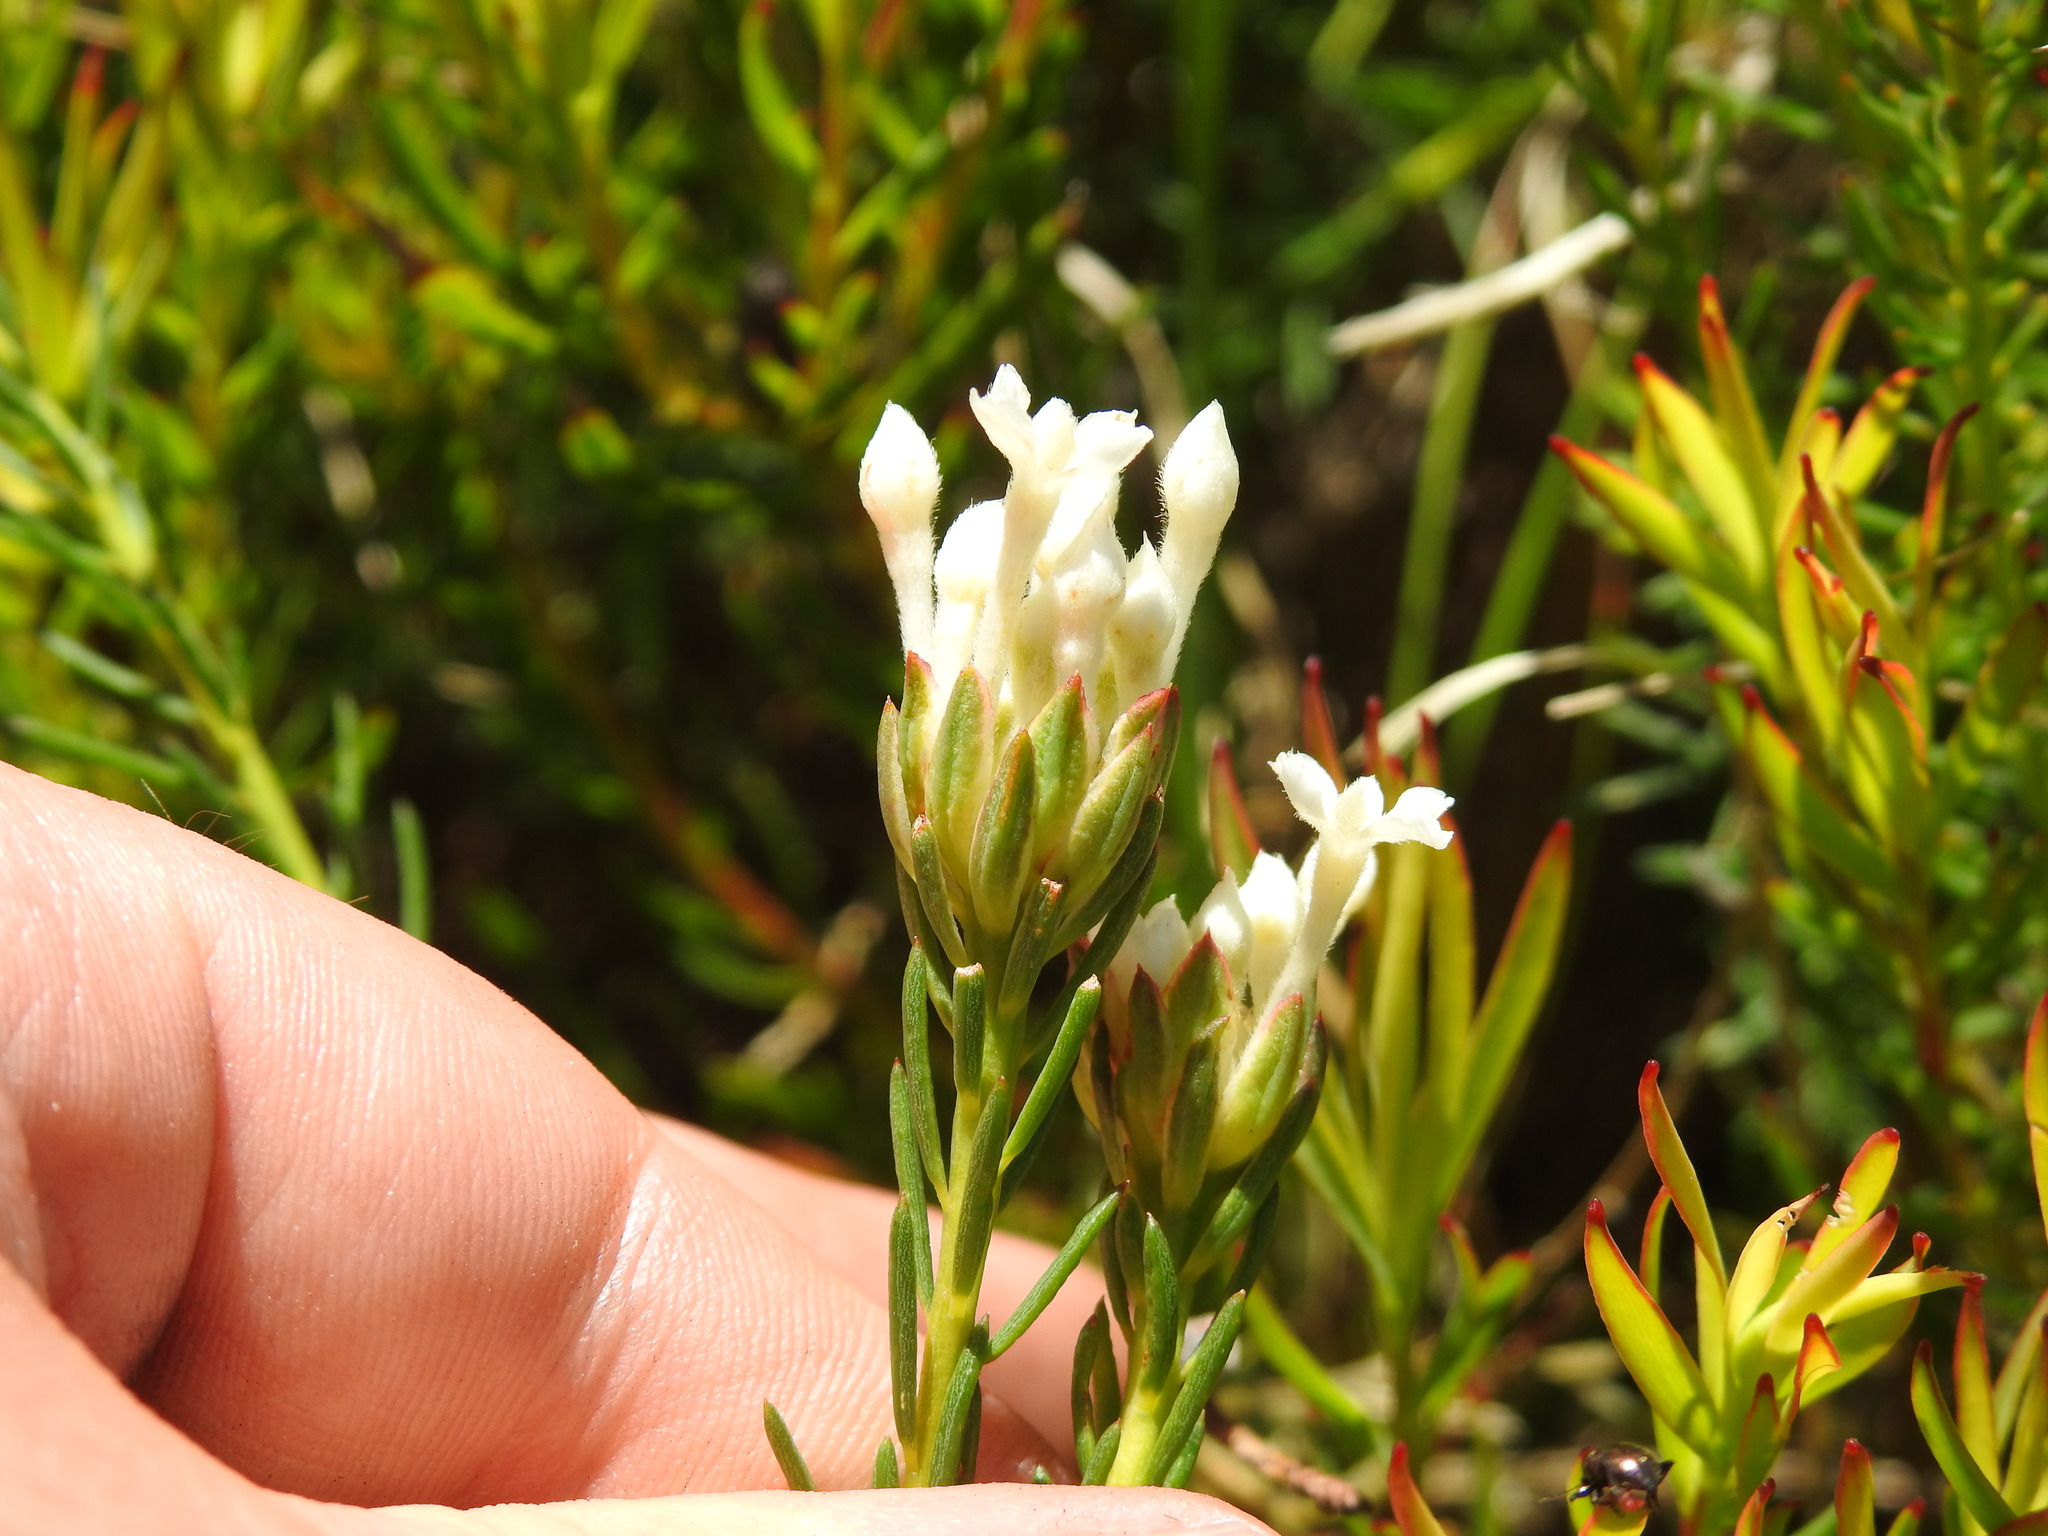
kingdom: Plantae
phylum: Tracheophyta
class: Magnoliopsida
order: Malvales
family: Thymelaeaceae
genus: Gnidia
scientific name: Gnidia pinifolia
